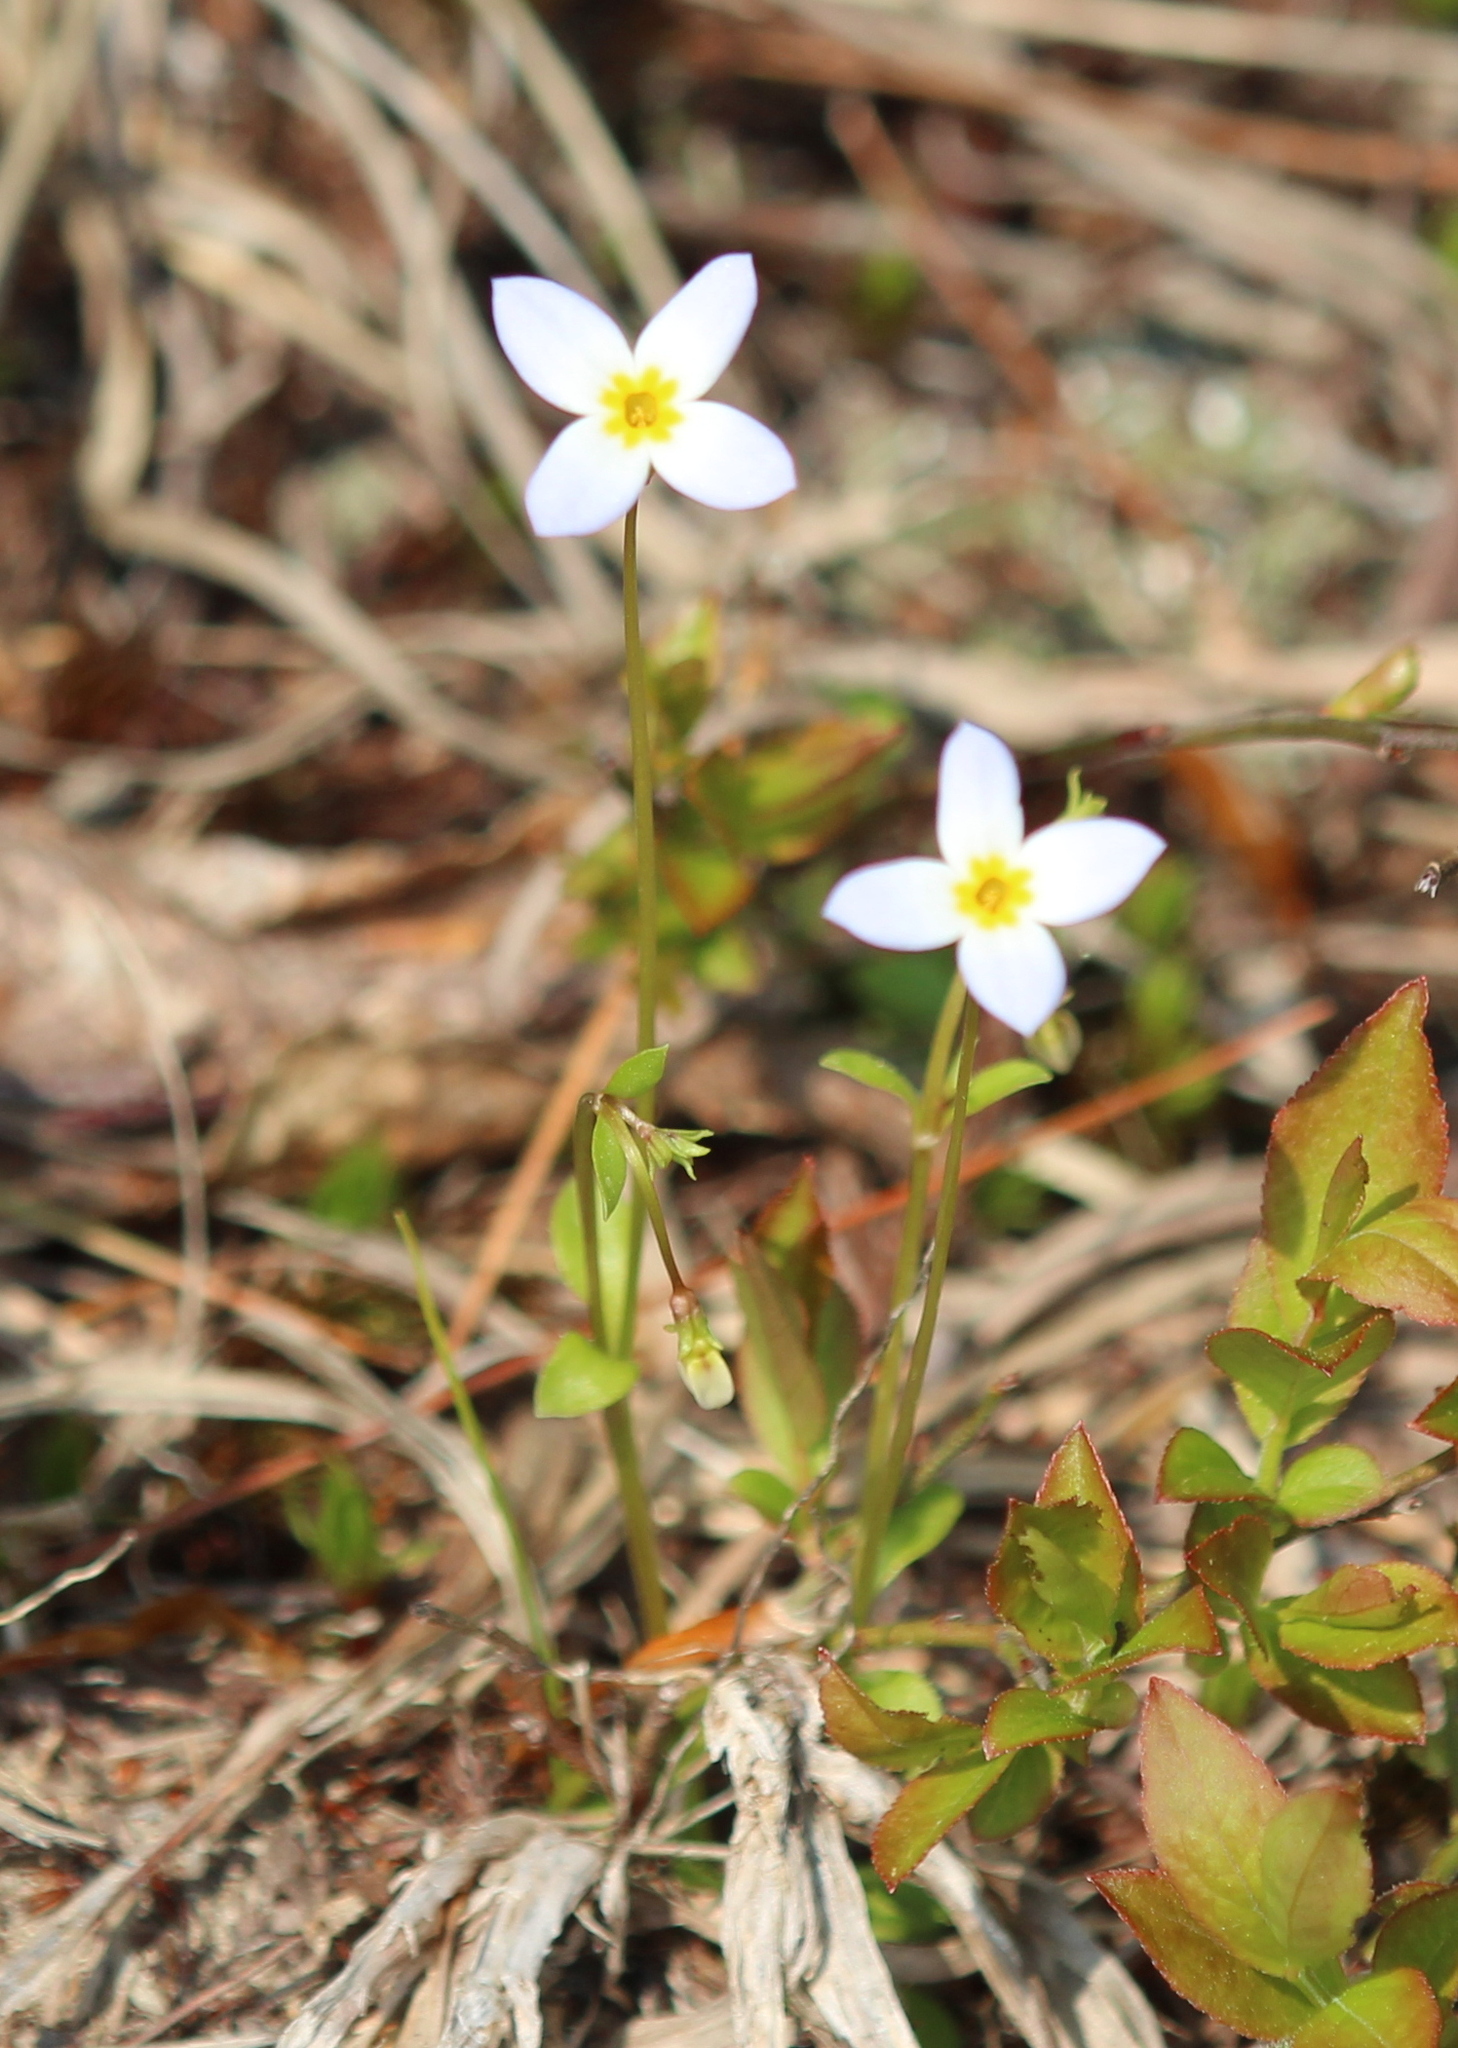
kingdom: Plantae
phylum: Tracheophyta
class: Magnoliopsida
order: Gentianales
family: Rubiaceae
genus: Houstonia
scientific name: Houstonia caerulea
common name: Bluets
